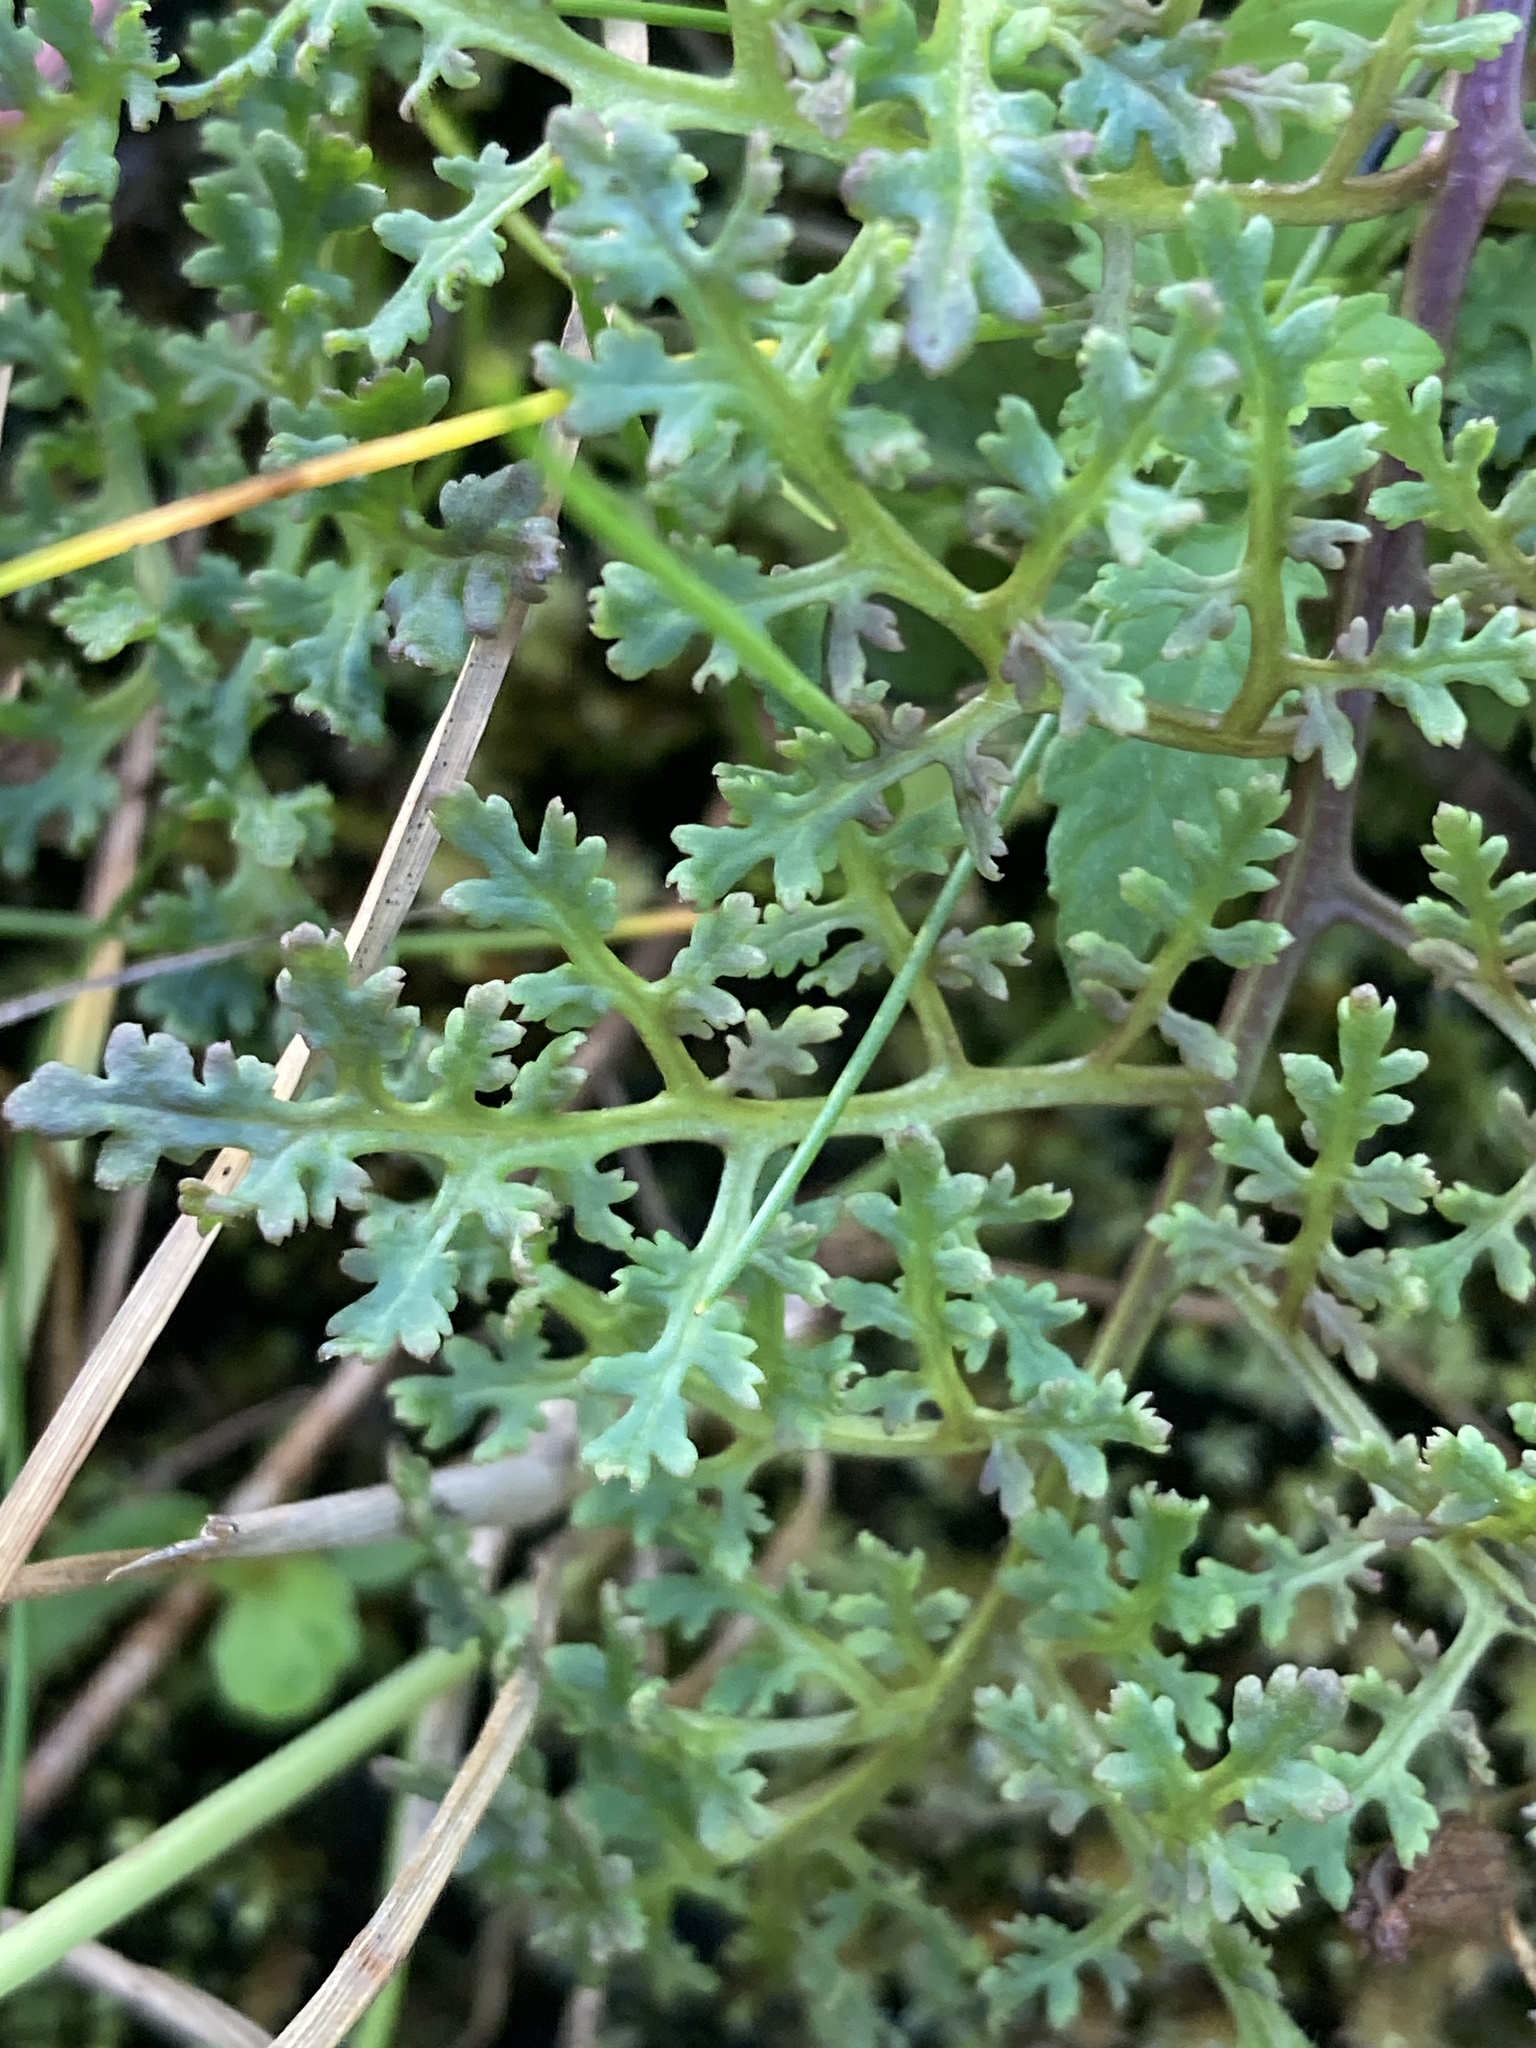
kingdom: Plantae
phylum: Tracheophyta
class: Magnoliopsida
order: Lamiales
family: Orobanchaceae
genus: Pedicularis
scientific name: Pedicularis palustris
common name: Marsh lousewort
